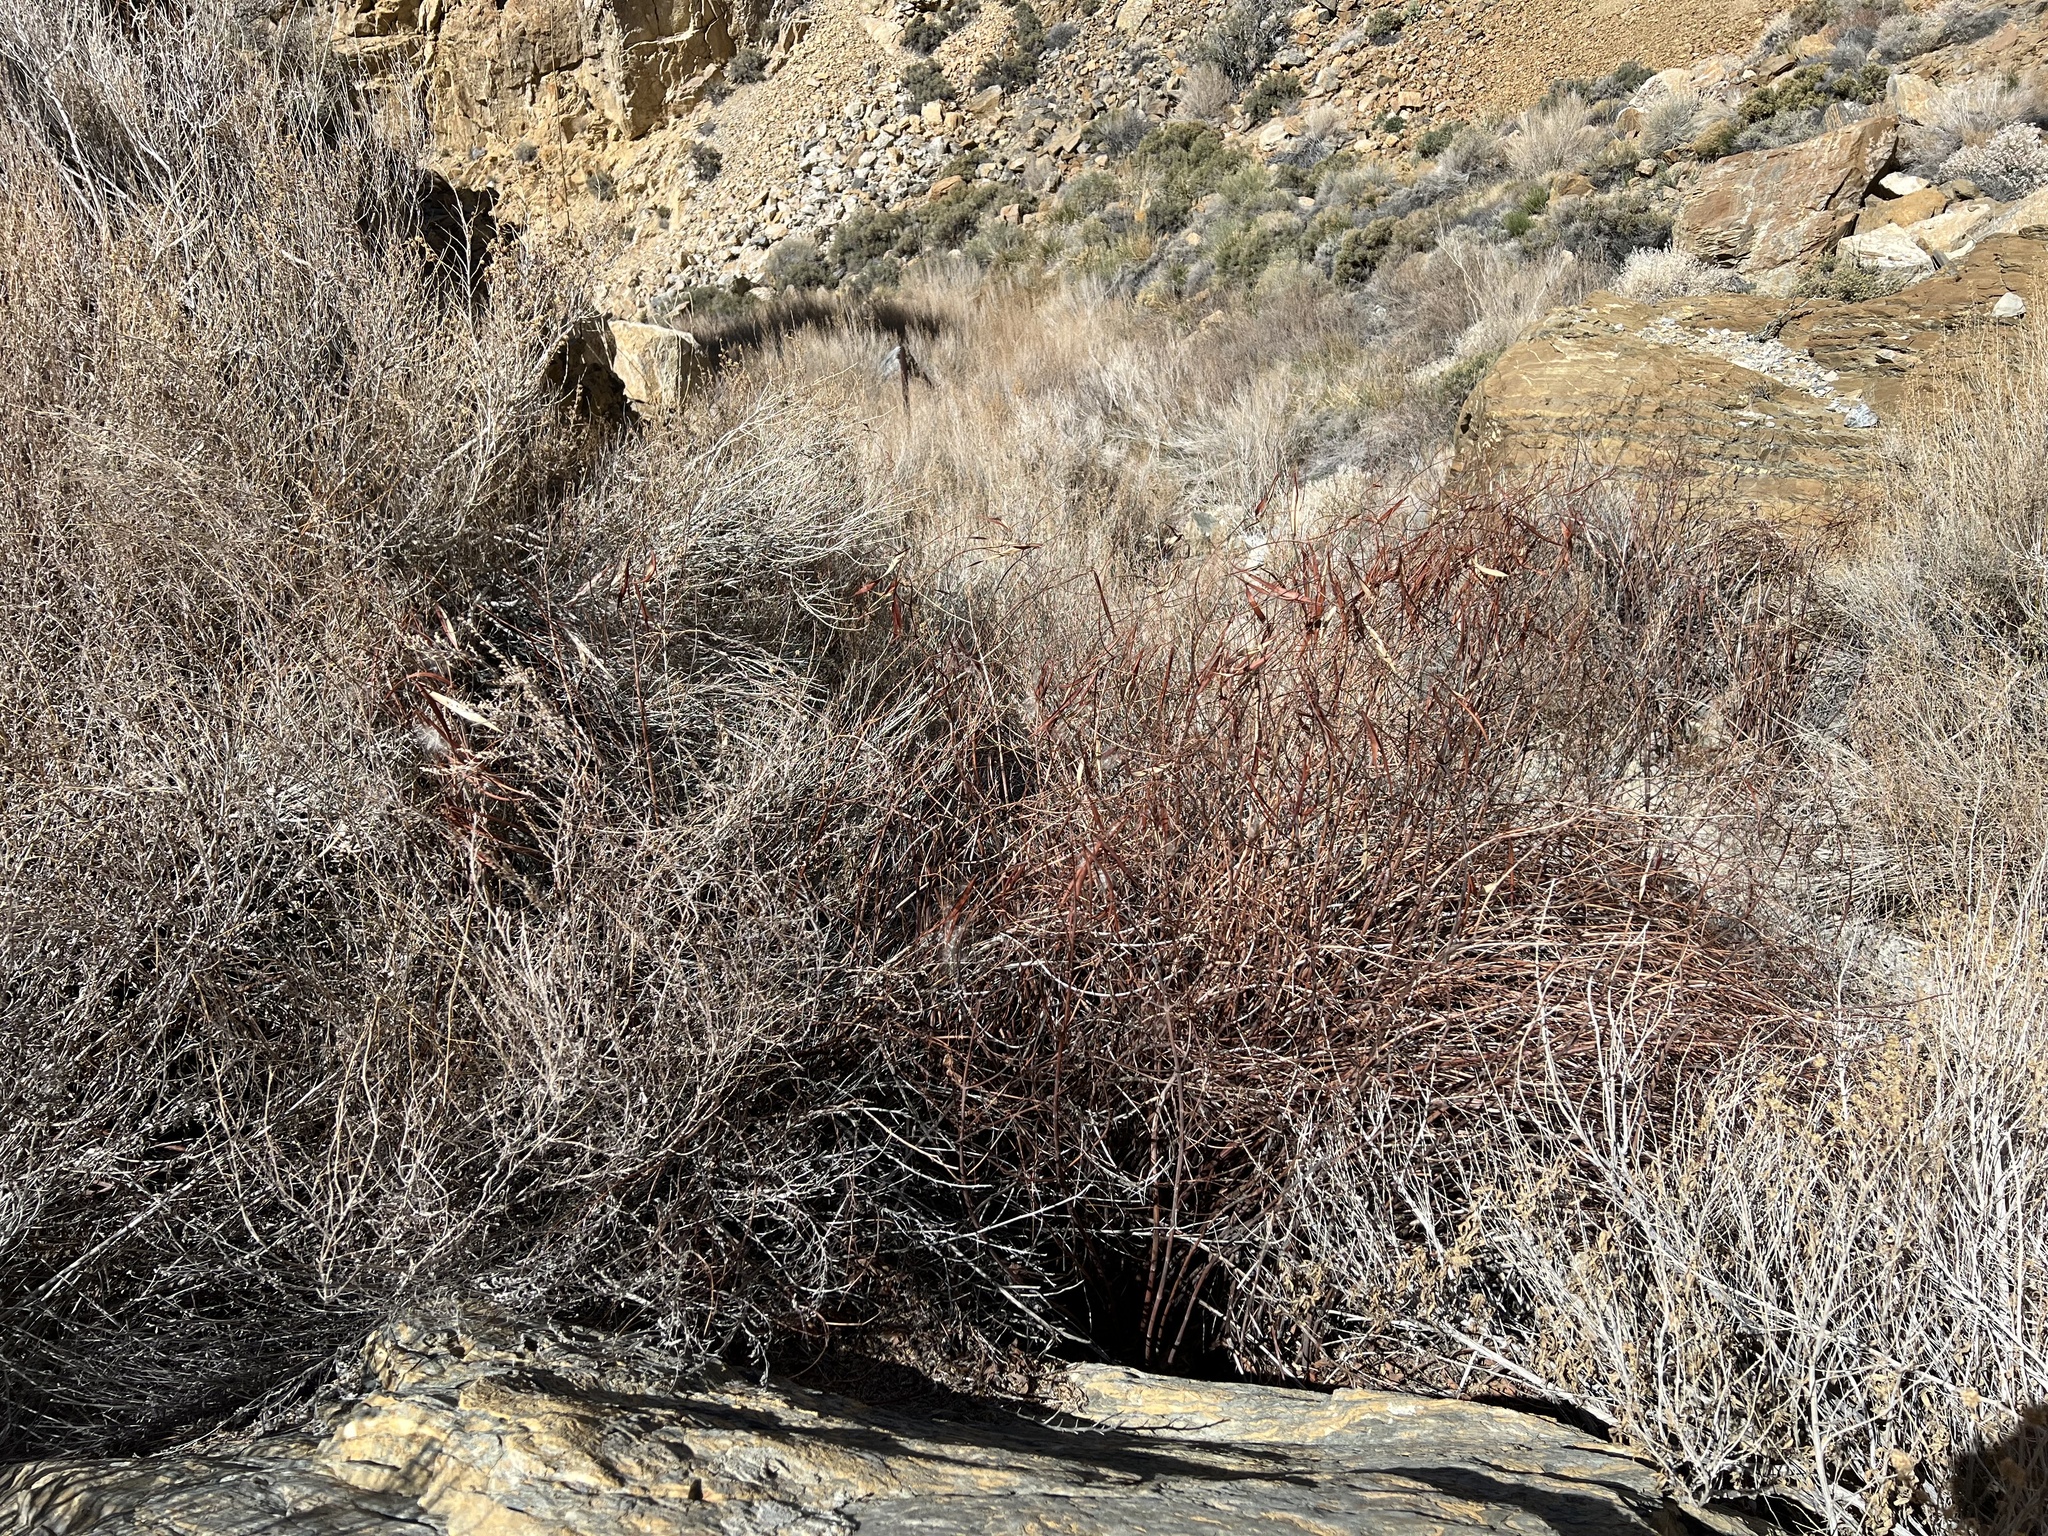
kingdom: Plantae
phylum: Tracheophyta
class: Magnoliopsida
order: Gentianales
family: Apocynaceae
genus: Asclepias
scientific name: Asclepias fascicularis
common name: Mexican milkweed
